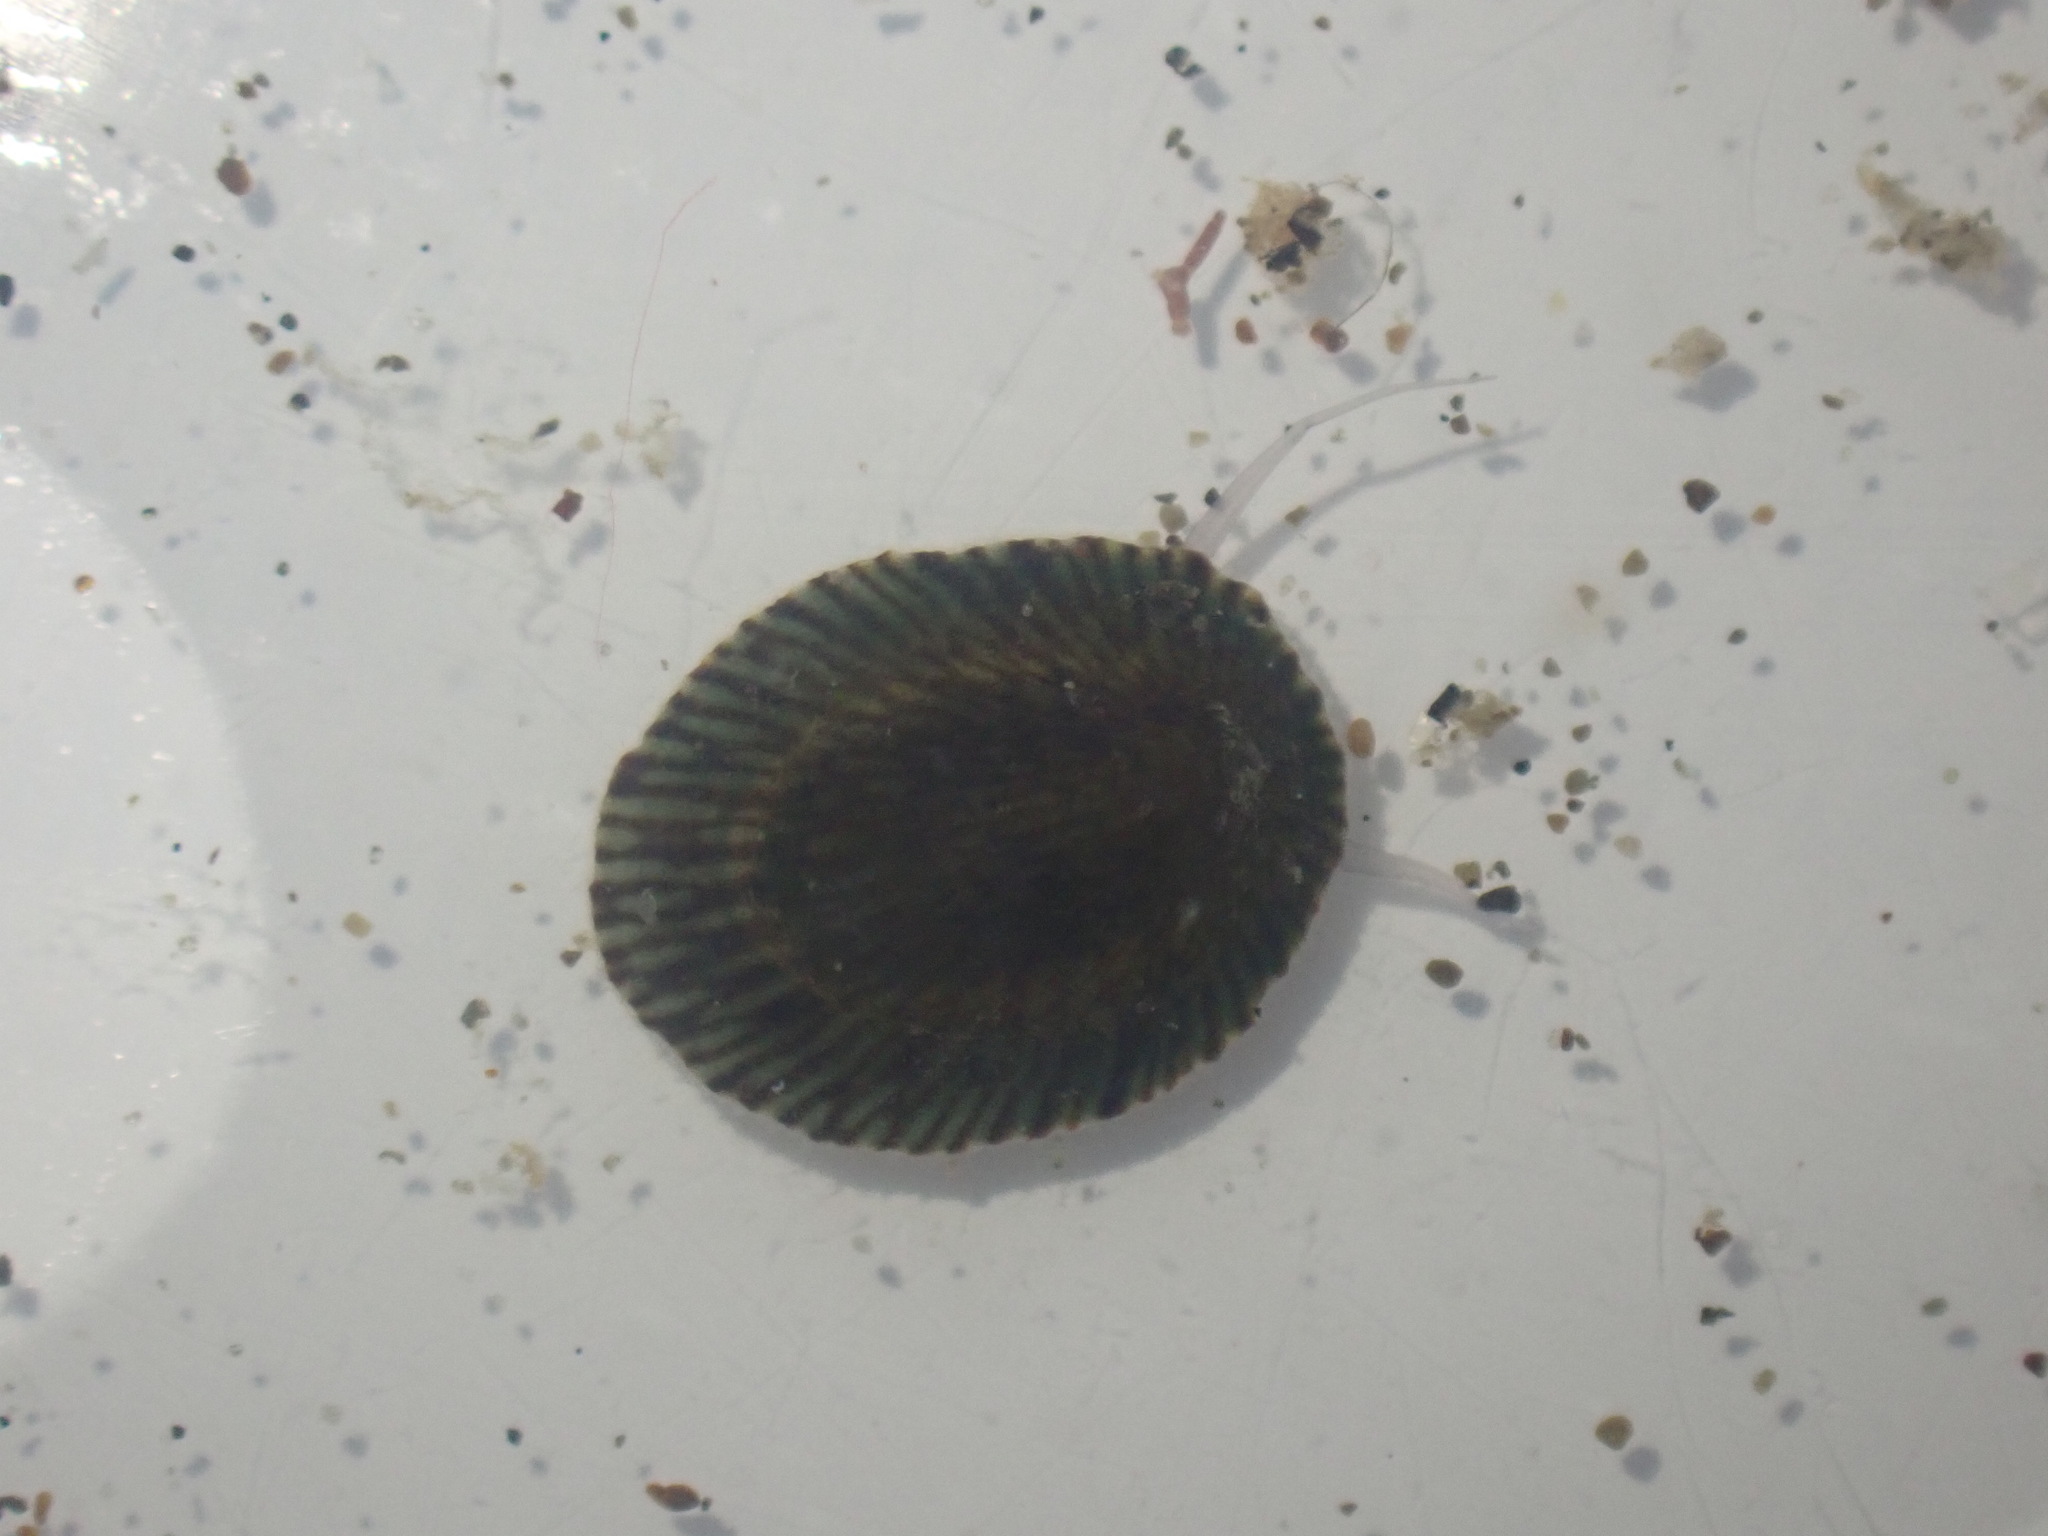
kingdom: Animalia
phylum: Mollusca
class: Gastropoda
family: Lottiidae
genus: Notoacmea
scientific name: Notoacmea
